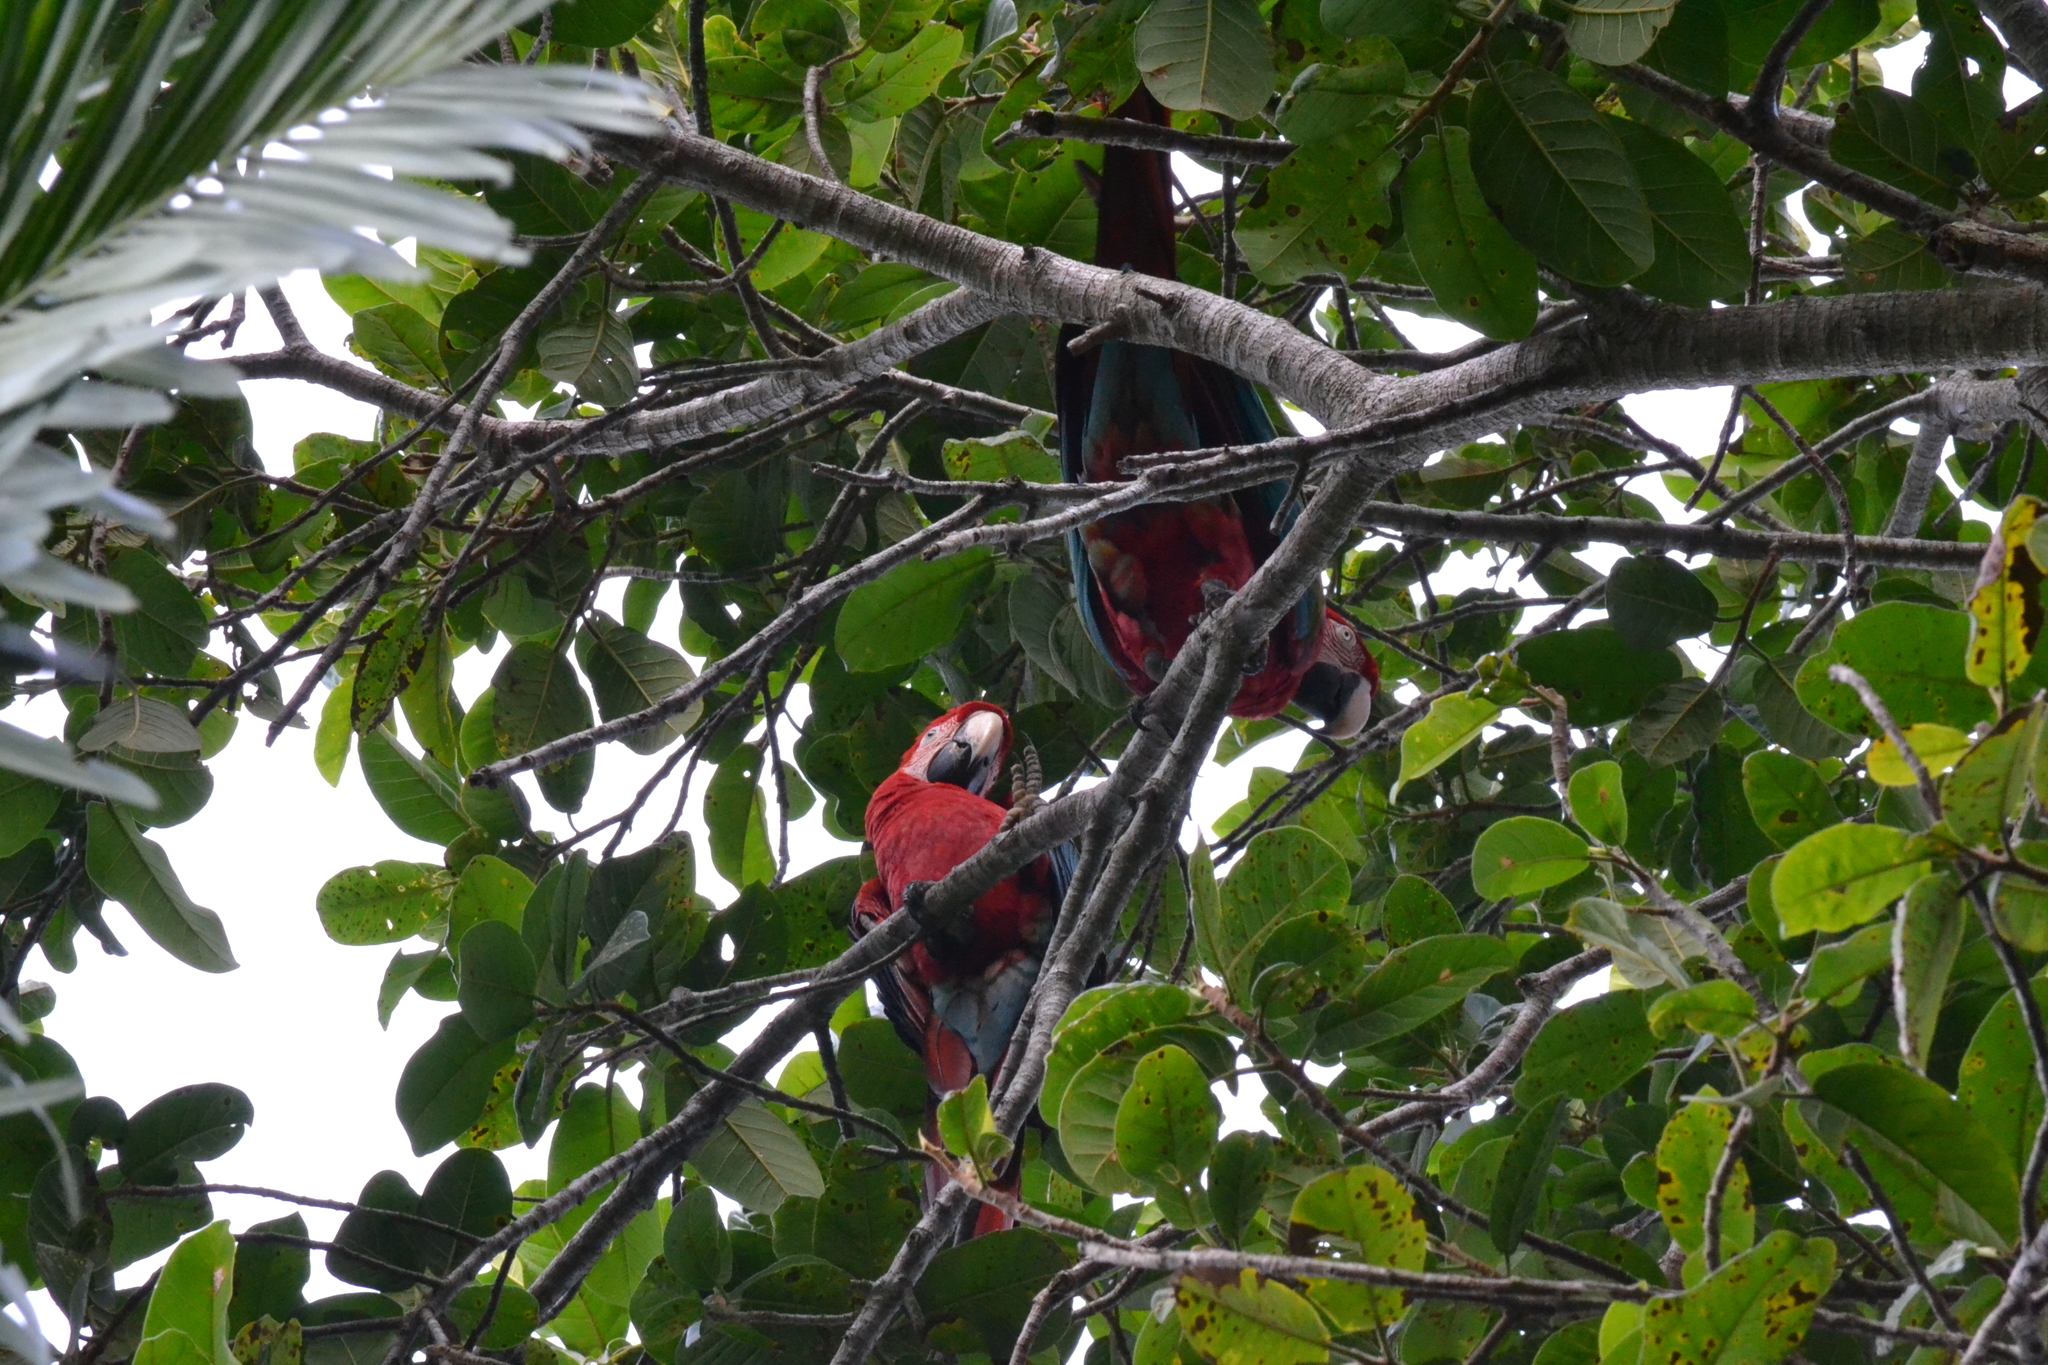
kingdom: Animalia
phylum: Chordata
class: Aves
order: Psittaciformes
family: Psittacidae
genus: Ara
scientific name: Ara chloropterus
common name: Red-and-green macaw
